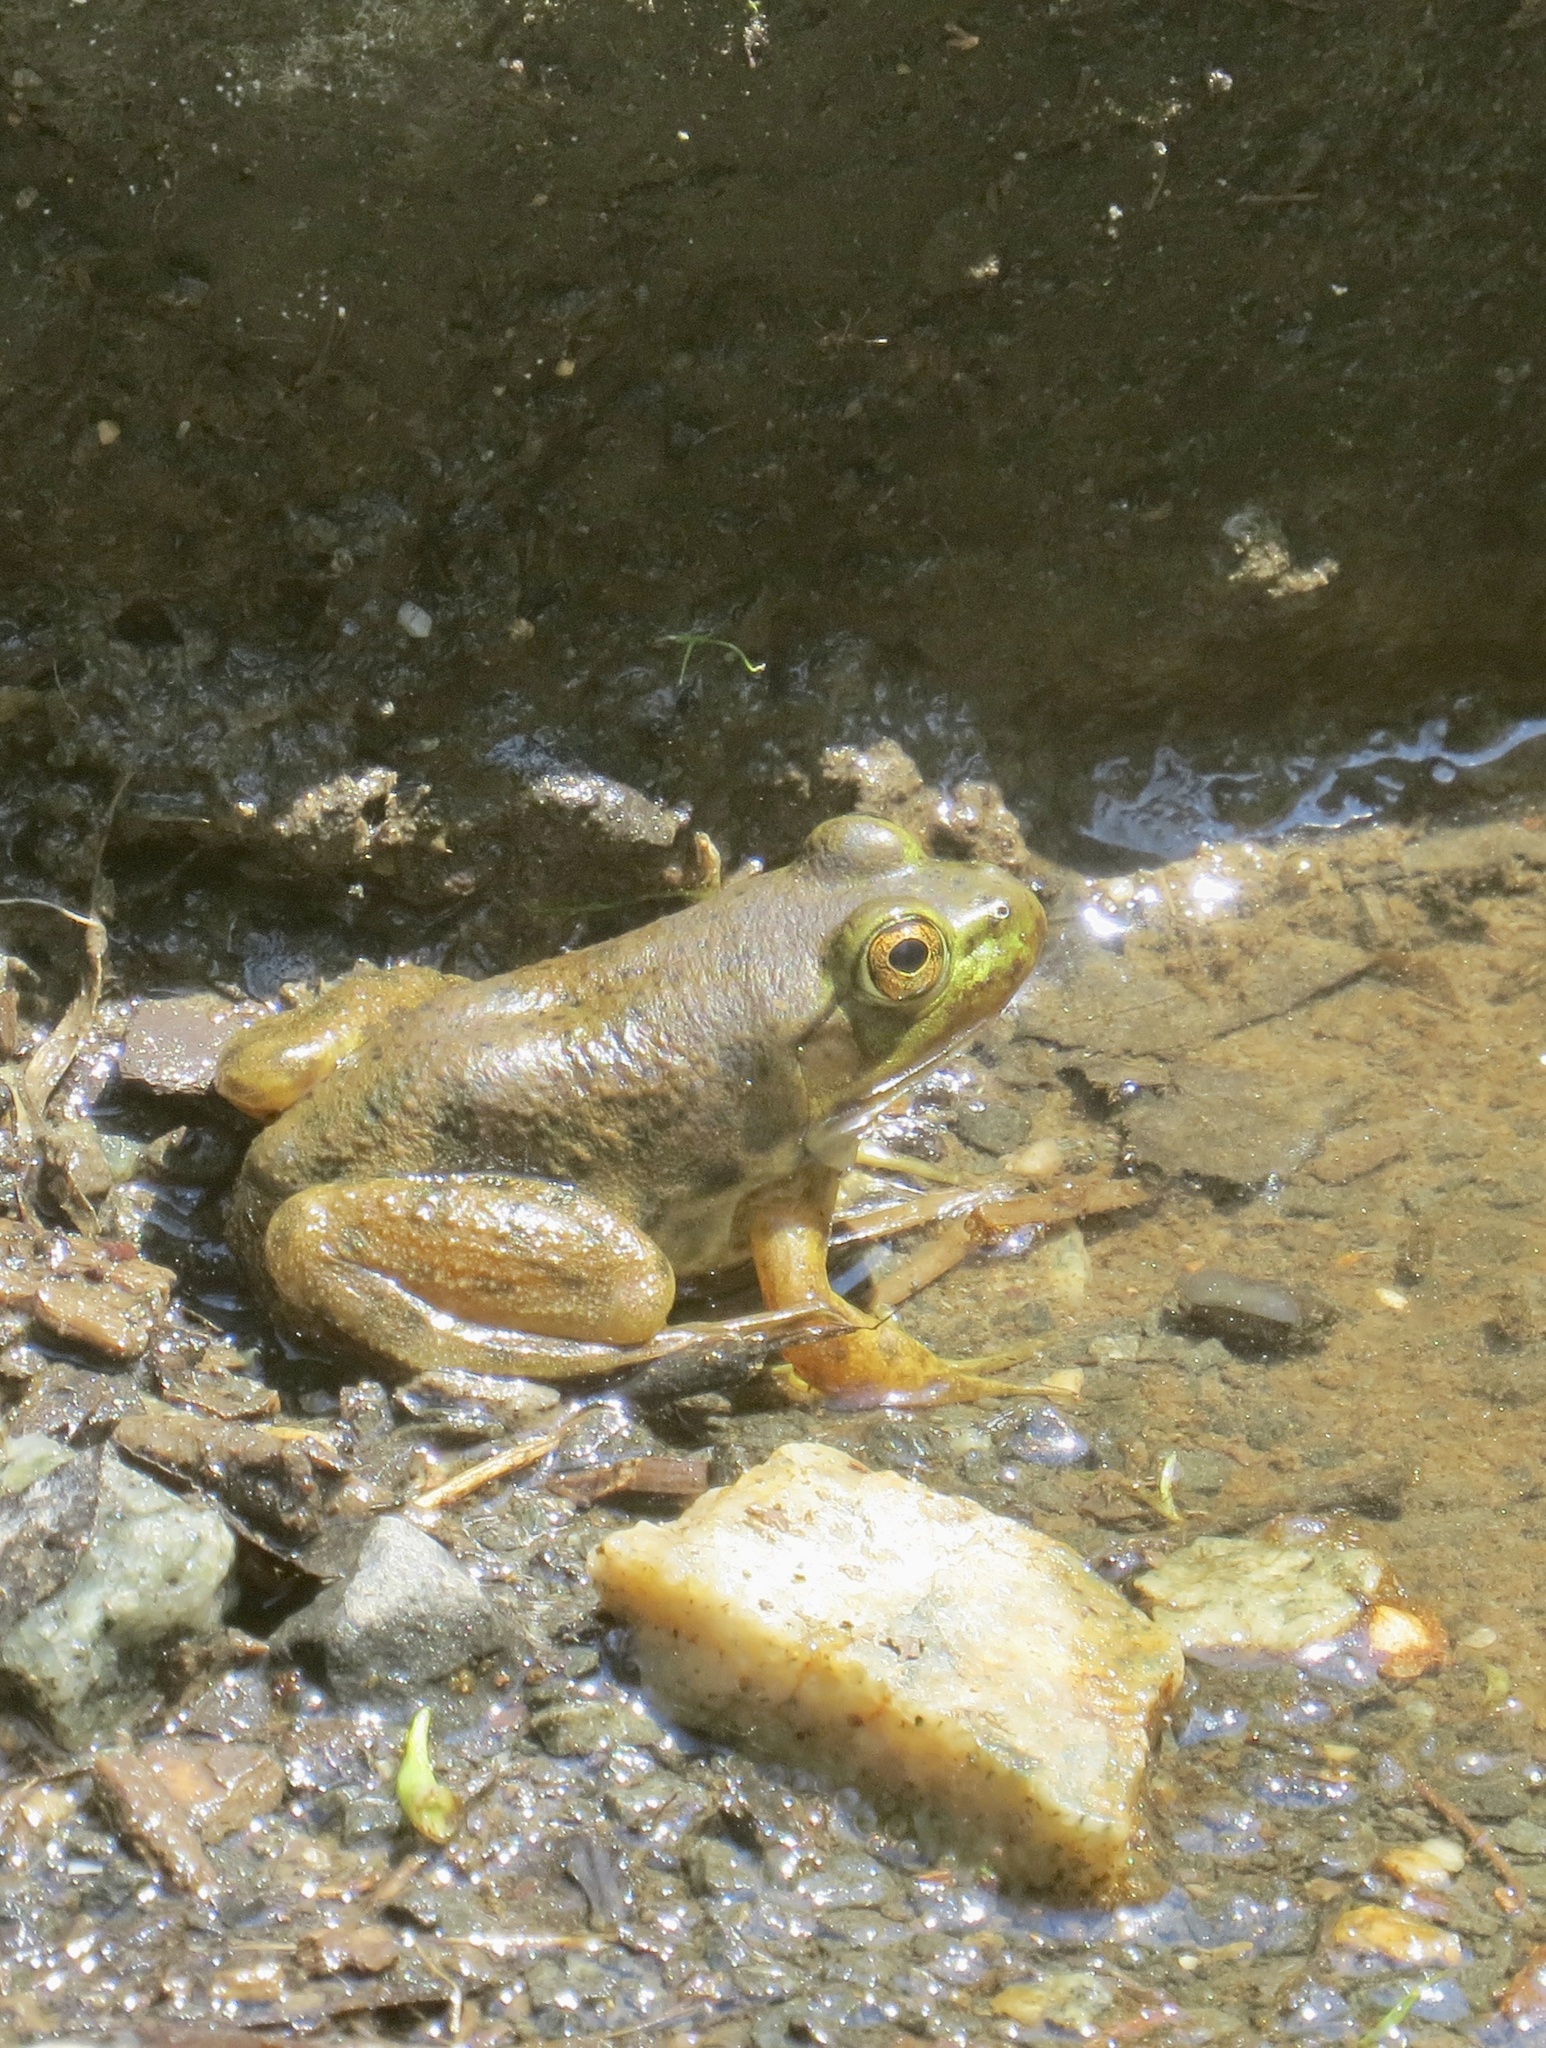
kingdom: Animalia
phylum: Chordata
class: Amphibia
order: Anura
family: Ranidae
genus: Lithobates
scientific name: Lithobates catesbeianus
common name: American bullfrog
